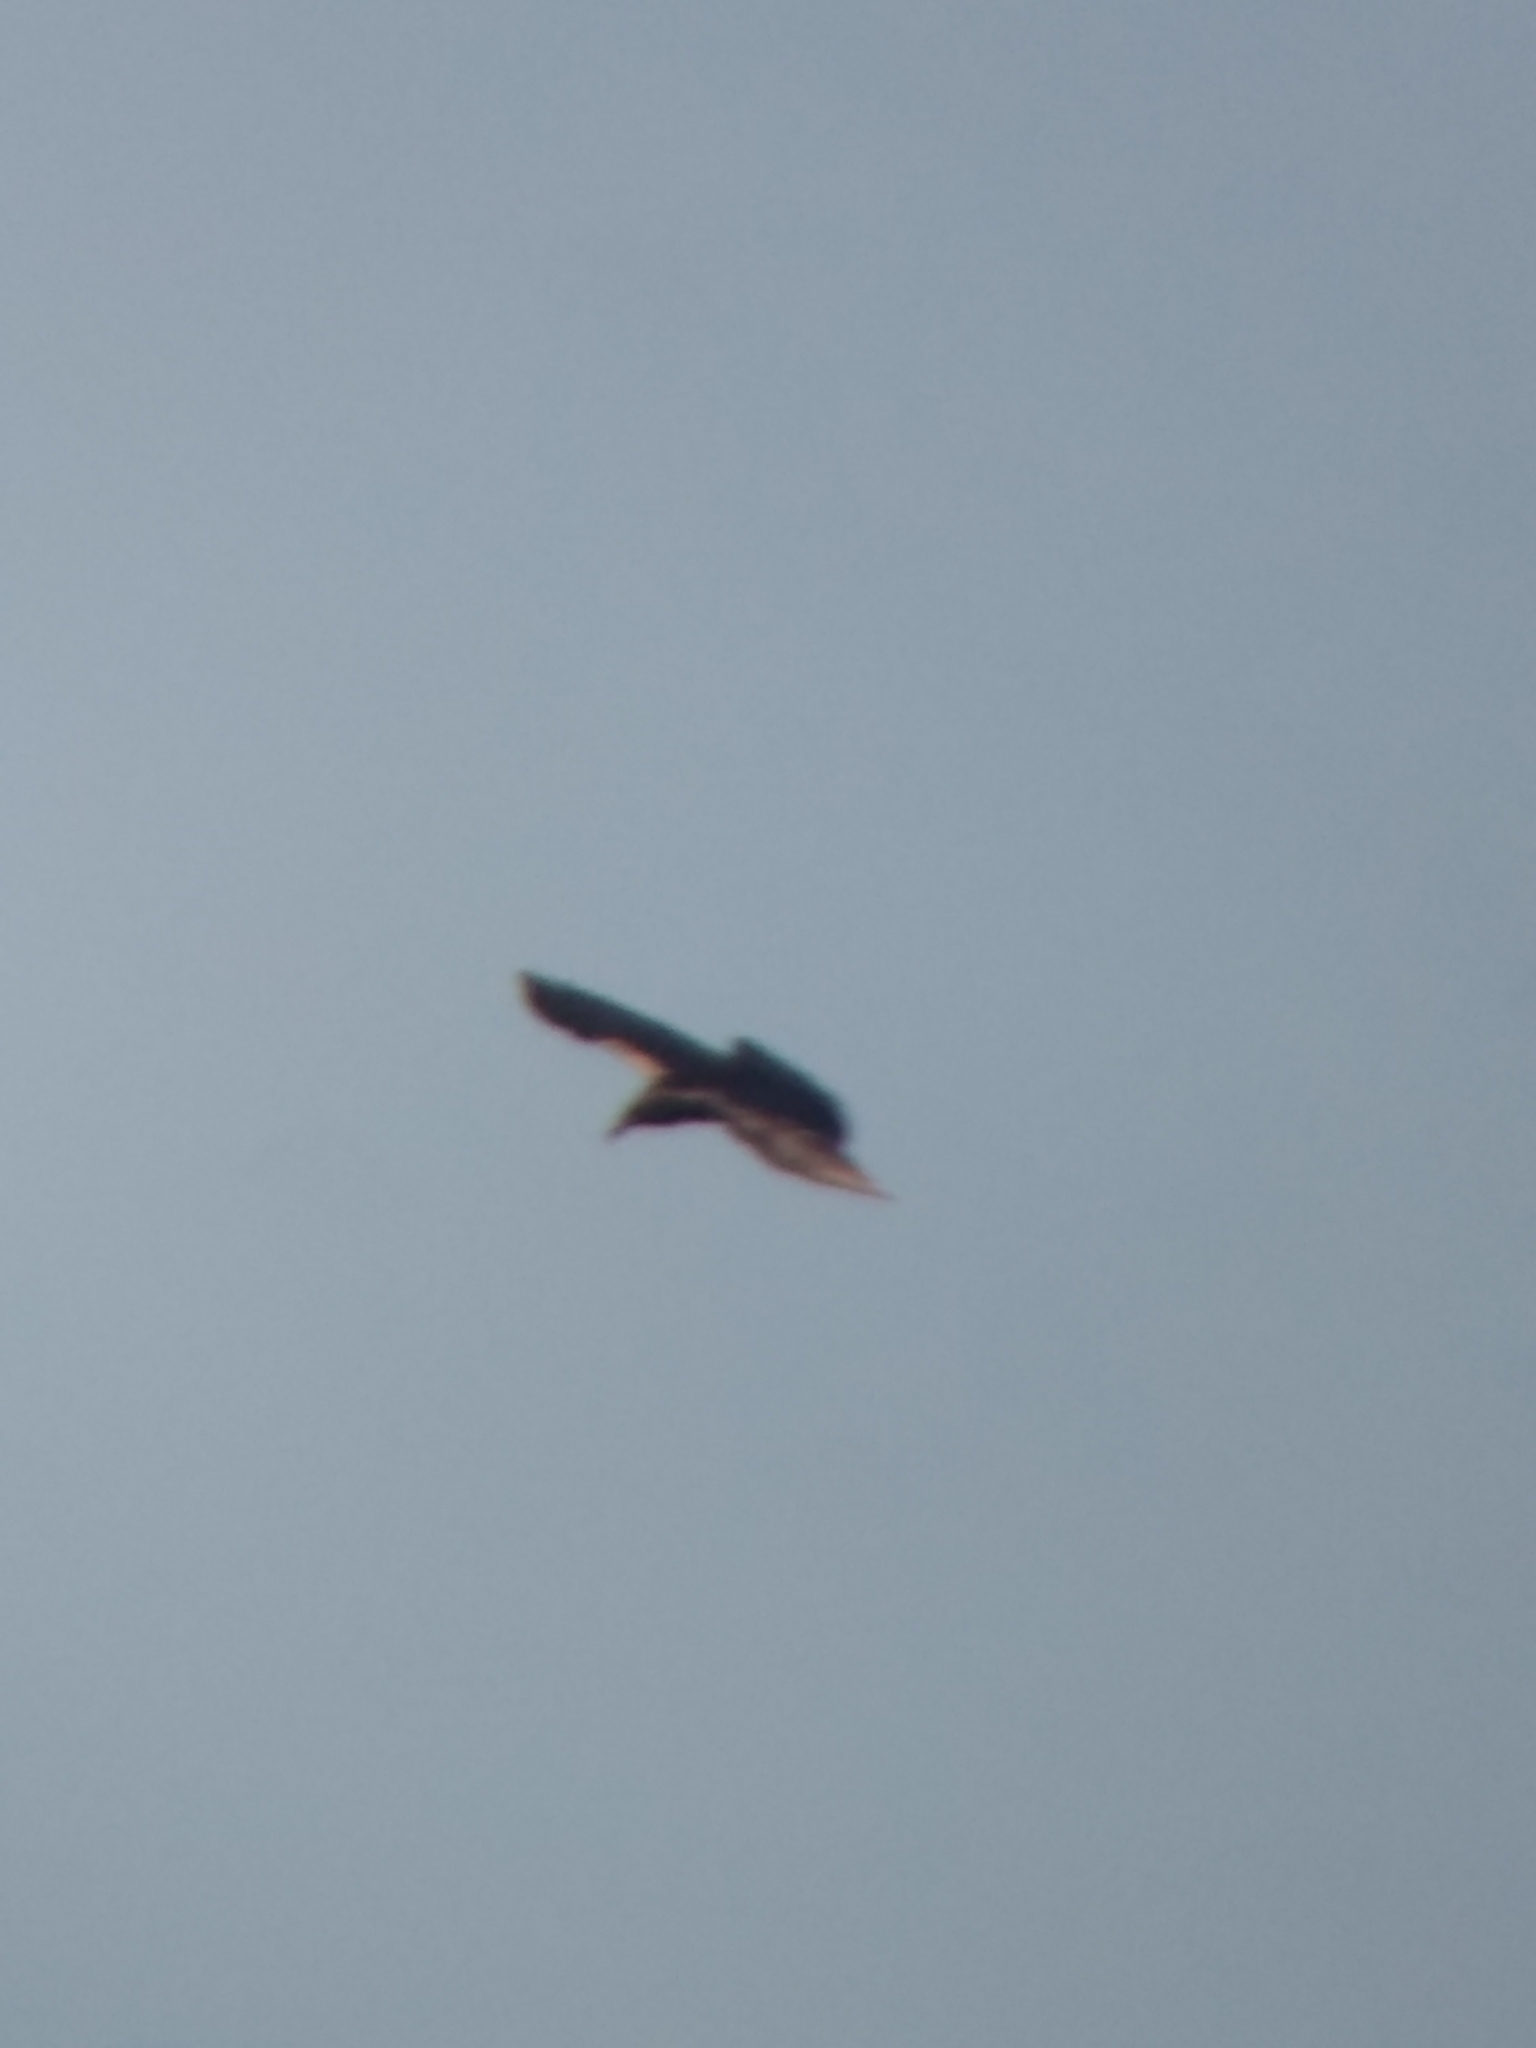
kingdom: Animalia
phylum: Chordata
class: Aves
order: Passeriformes
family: Corvidae
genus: Corvus
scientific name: Corvus corax
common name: Common raven
